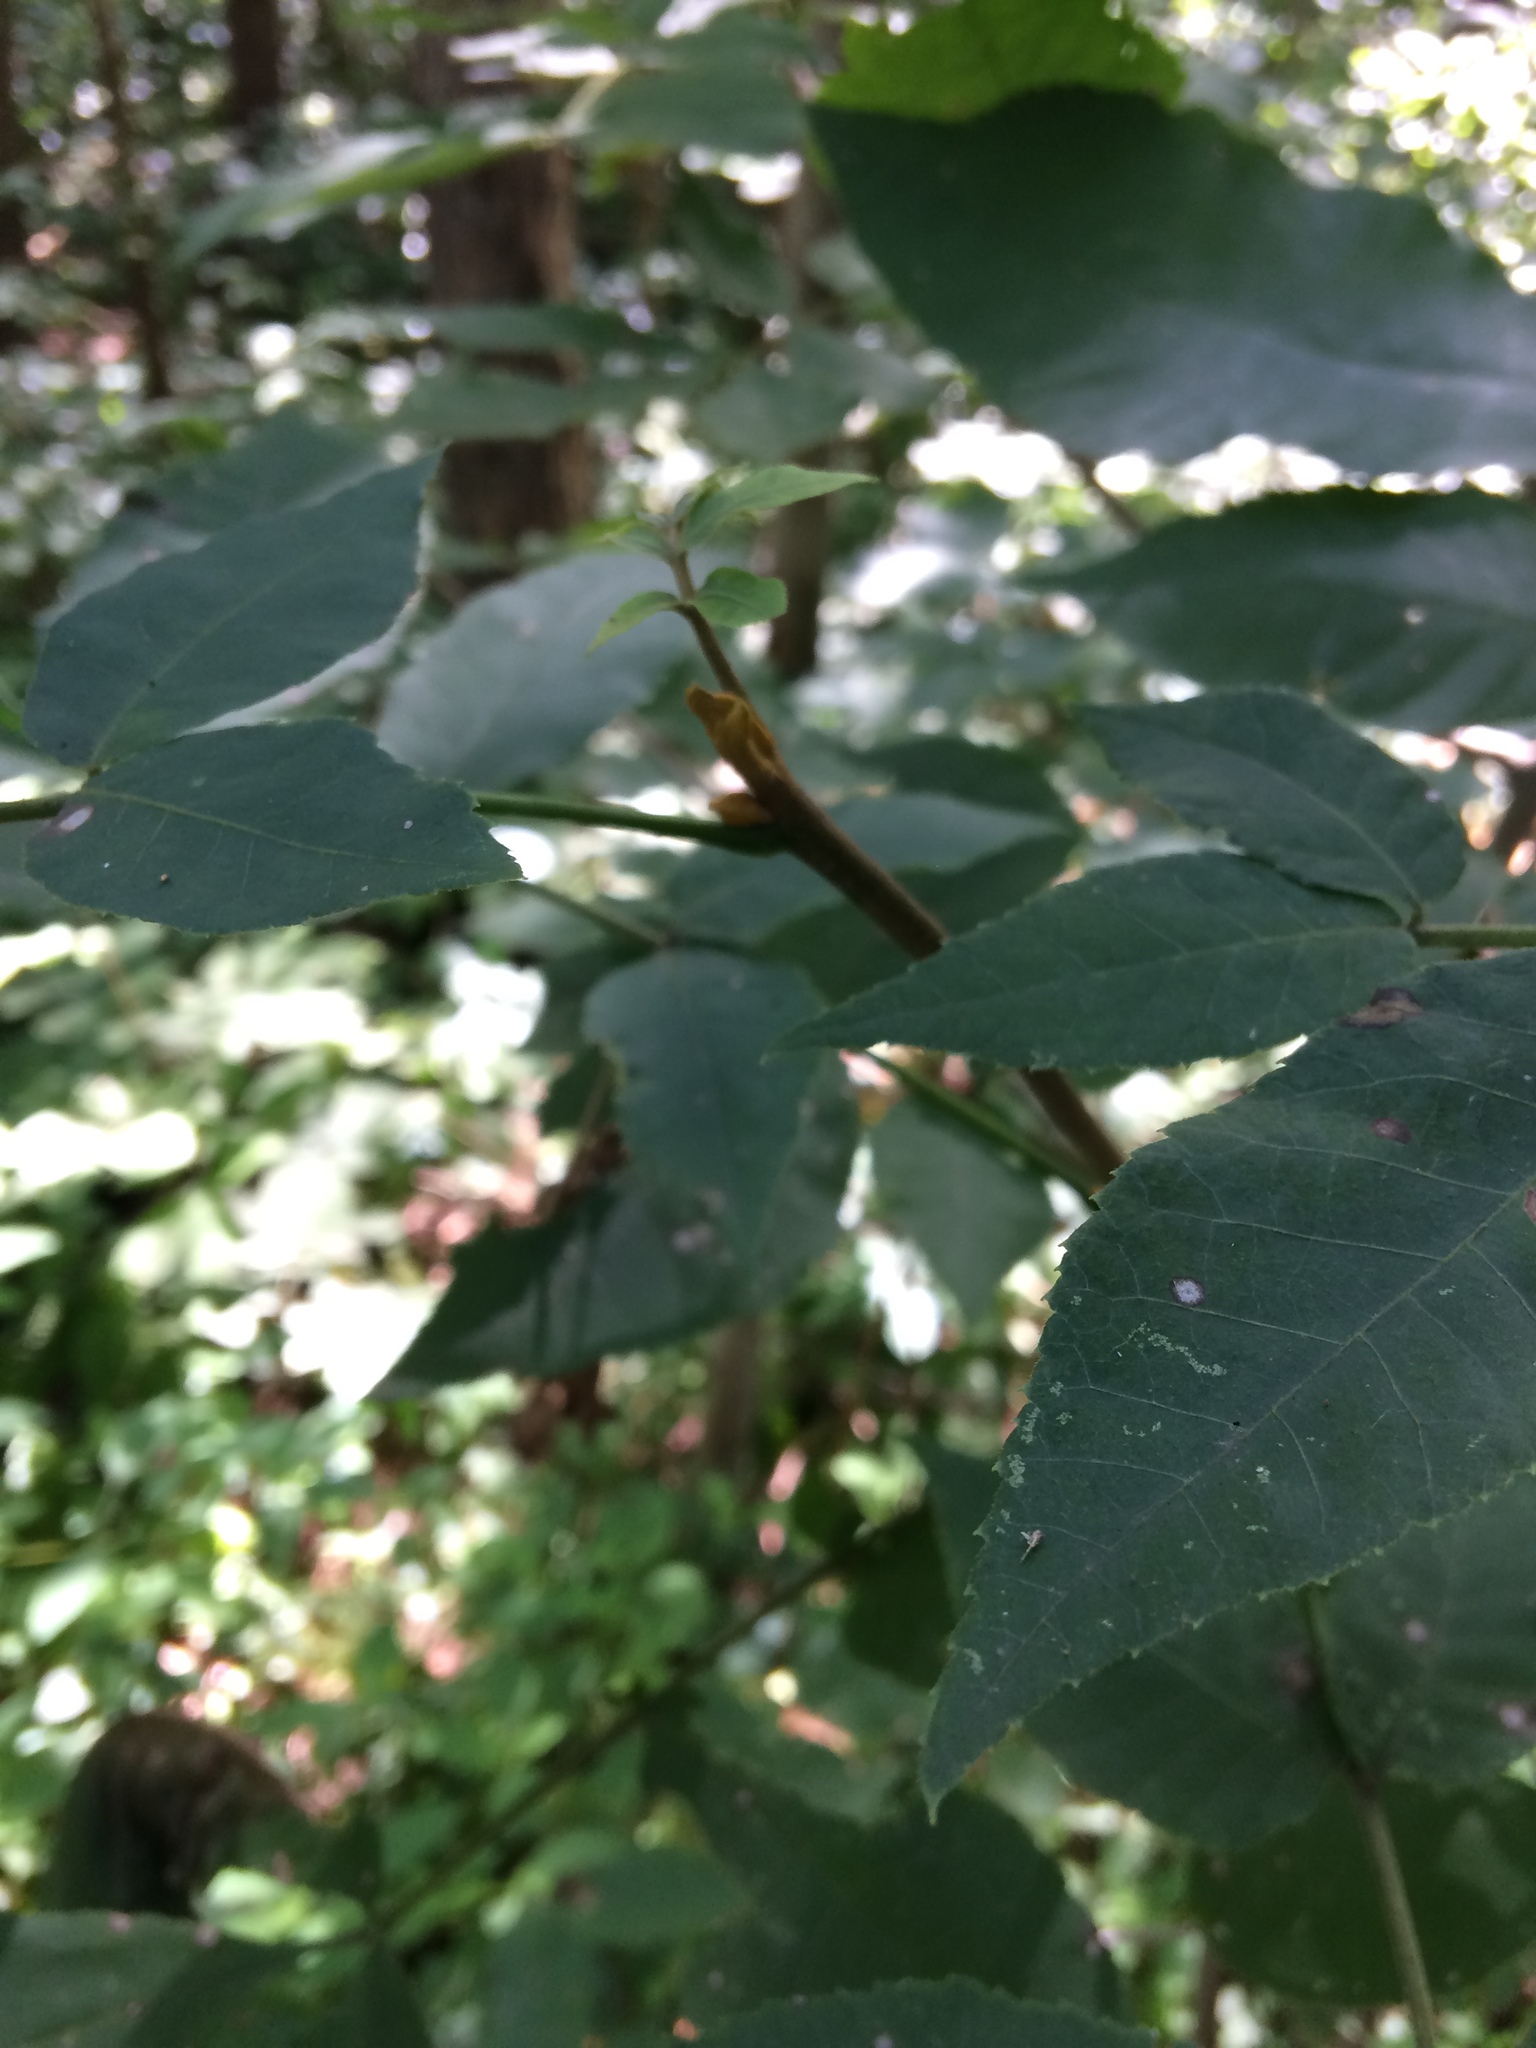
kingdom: Plantae
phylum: Tracheophyta
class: Magnoliopsida
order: Fagales
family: Juglandaceae
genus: Carya
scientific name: Carya cordiformis
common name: Bitternut hickory
